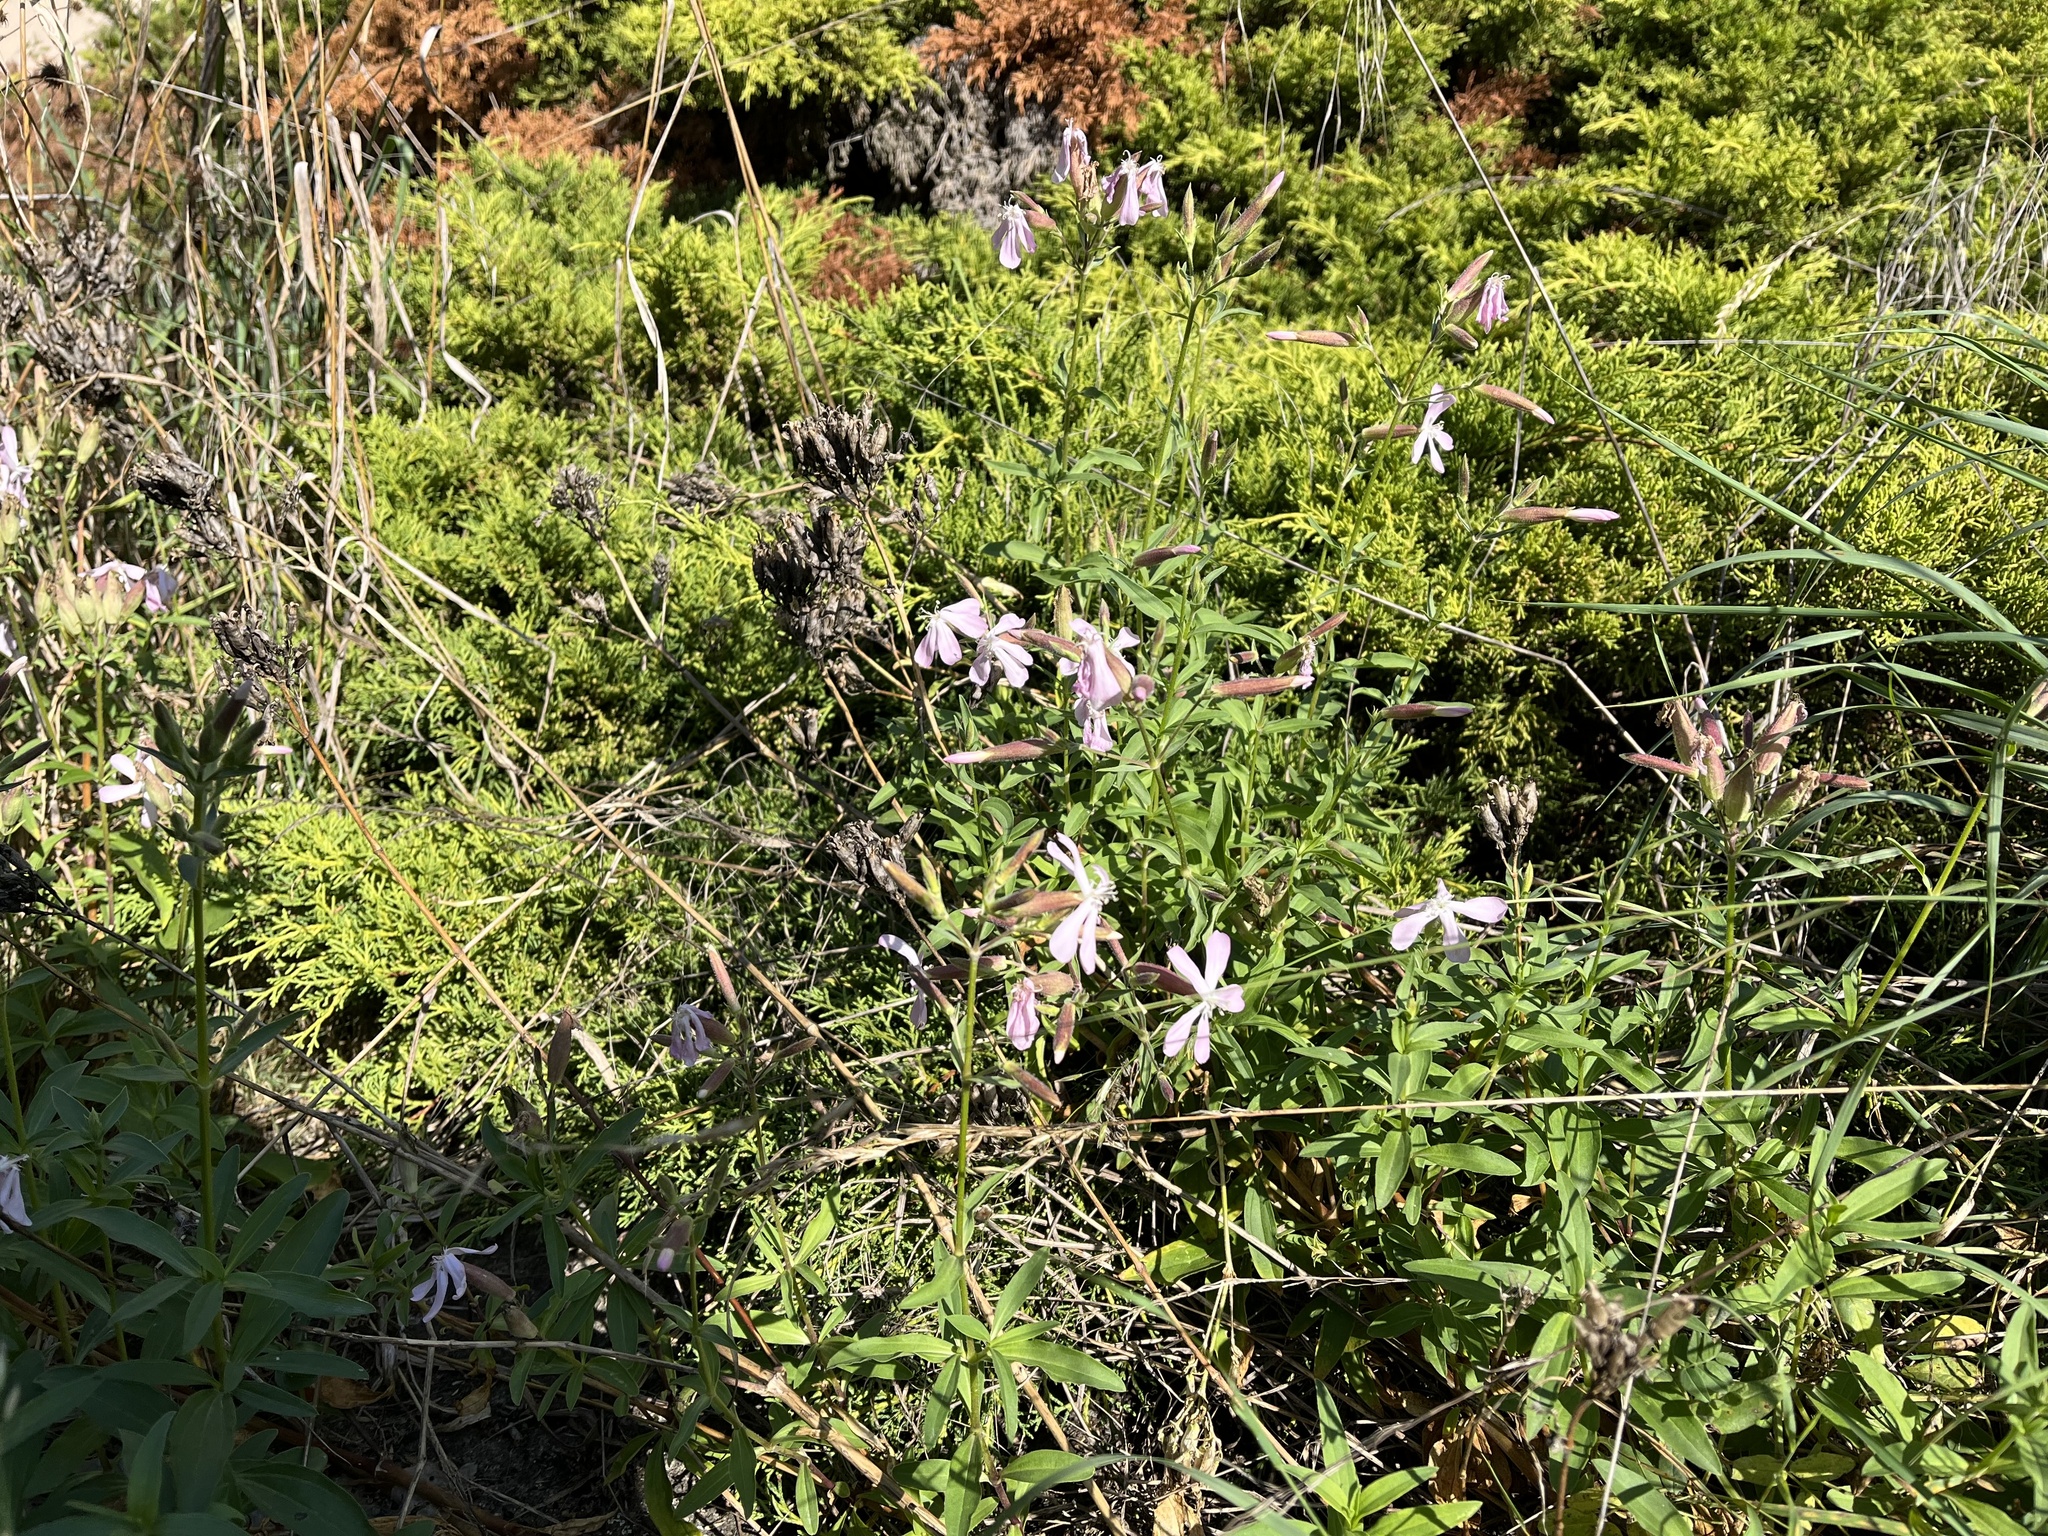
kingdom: Plantae
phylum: Tracheophyta
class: Magnoliopsida
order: Caryophyllales
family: Caryophyllaceae
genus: Saponaria
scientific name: Saponaria officinalis
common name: Soapwort
